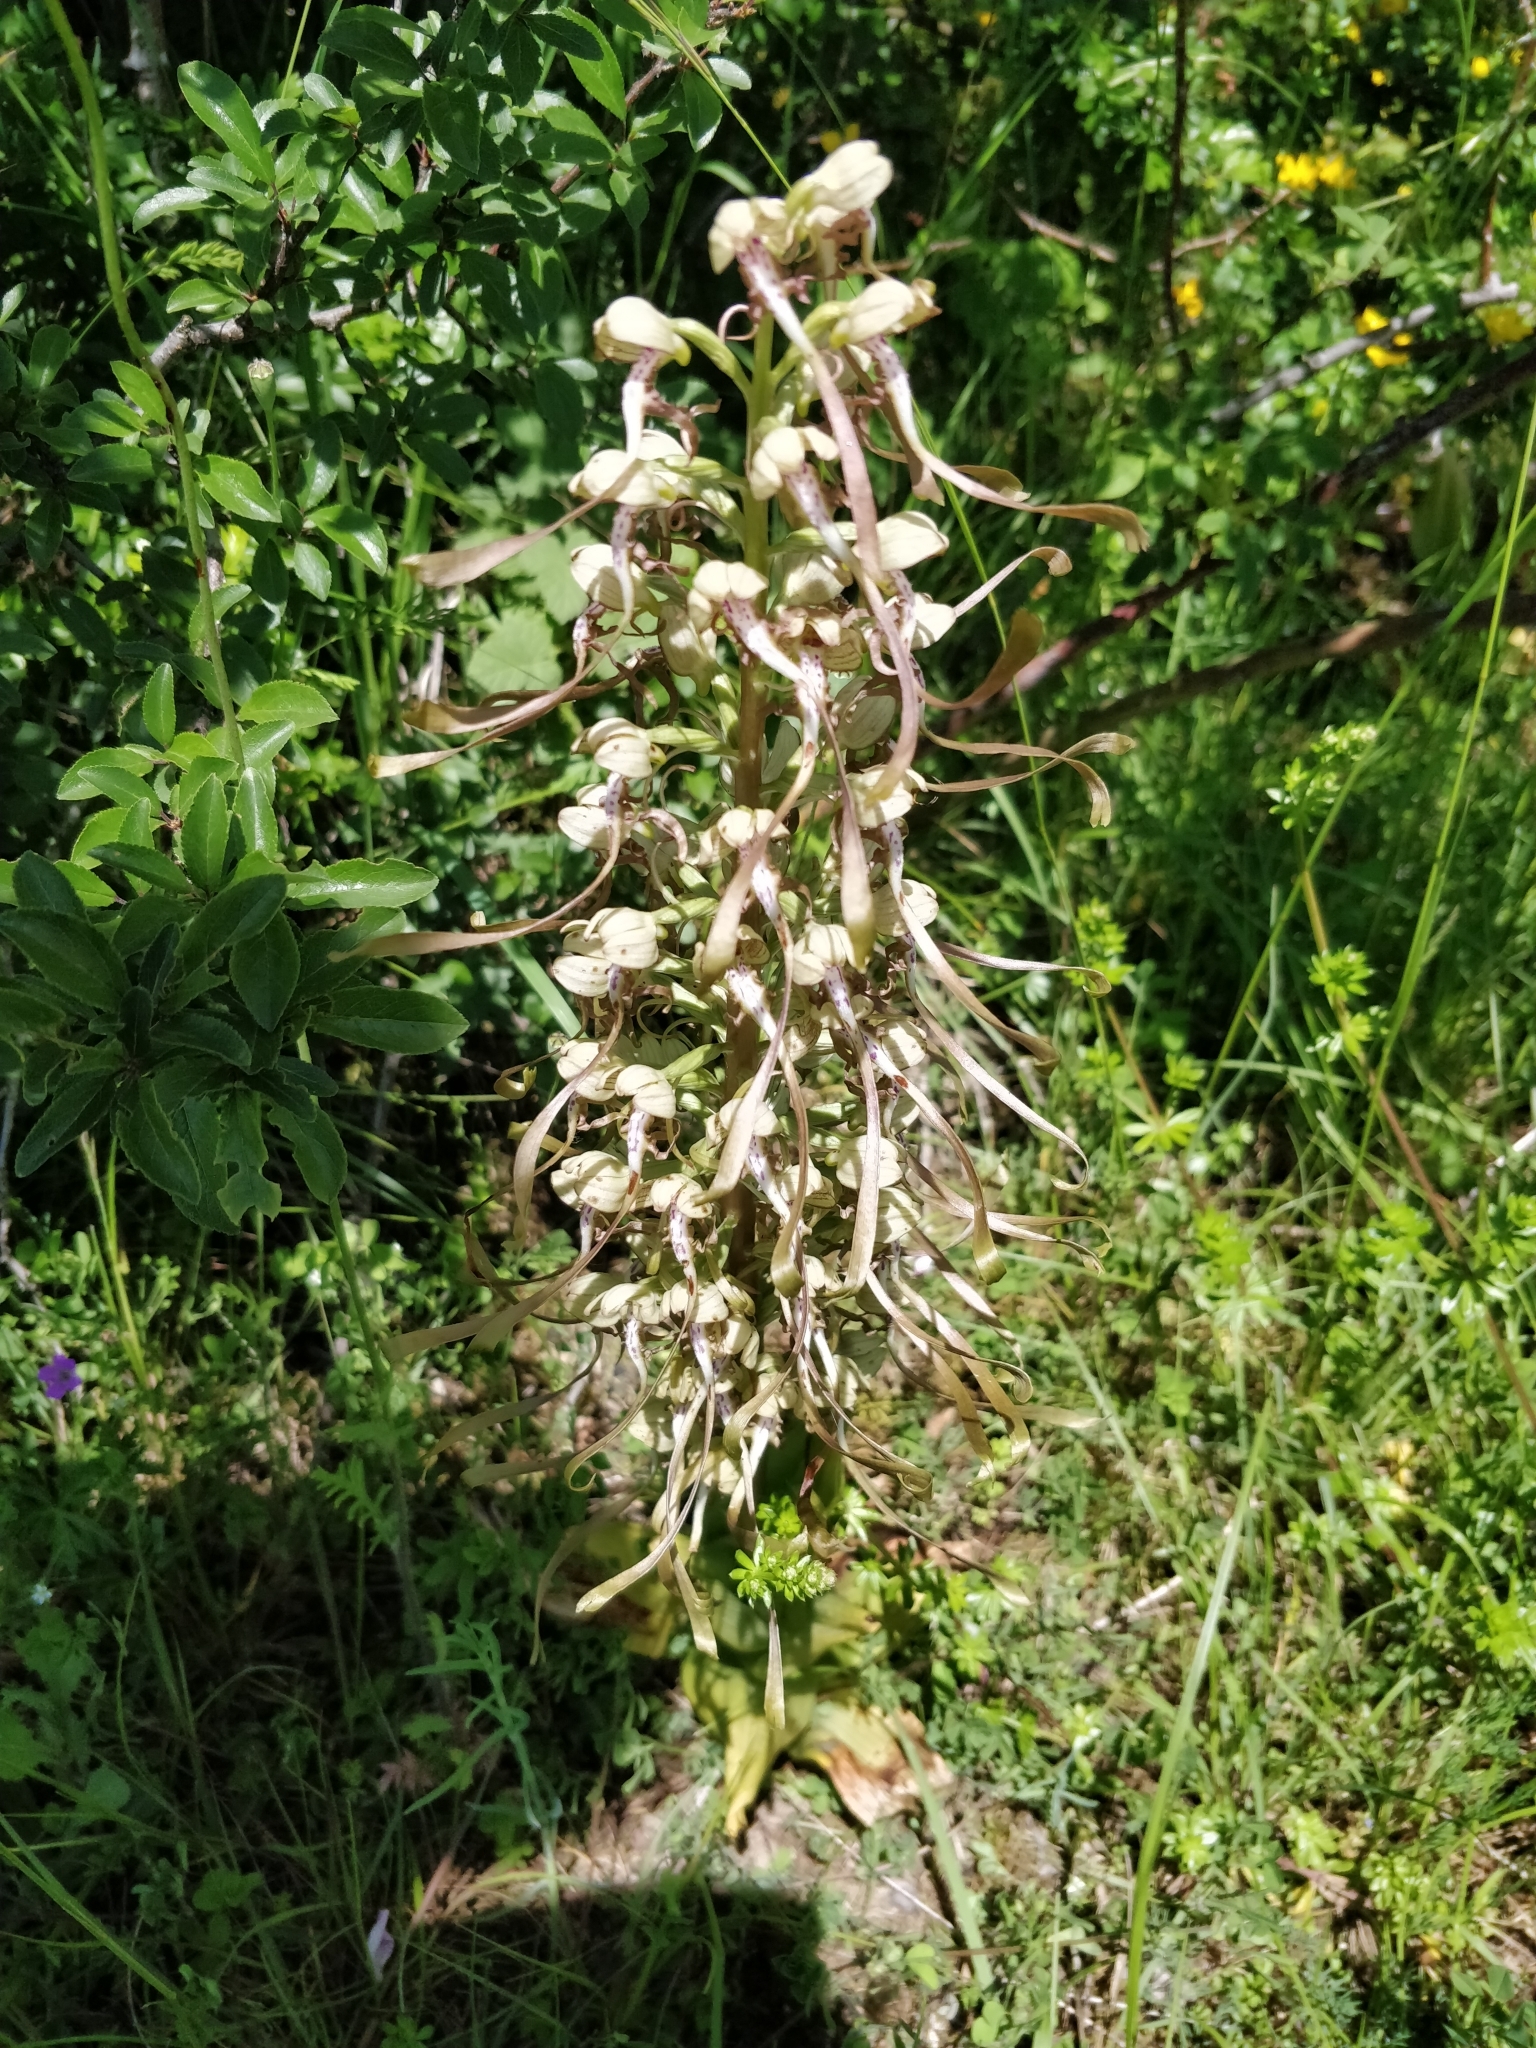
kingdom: Plantae
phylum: Tracheophyta
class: Liliopsida
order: Asparagales
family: Orchidaceae
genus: Himantoglossum
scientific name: Himantoglossum hircinum
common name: Lizard orchid
